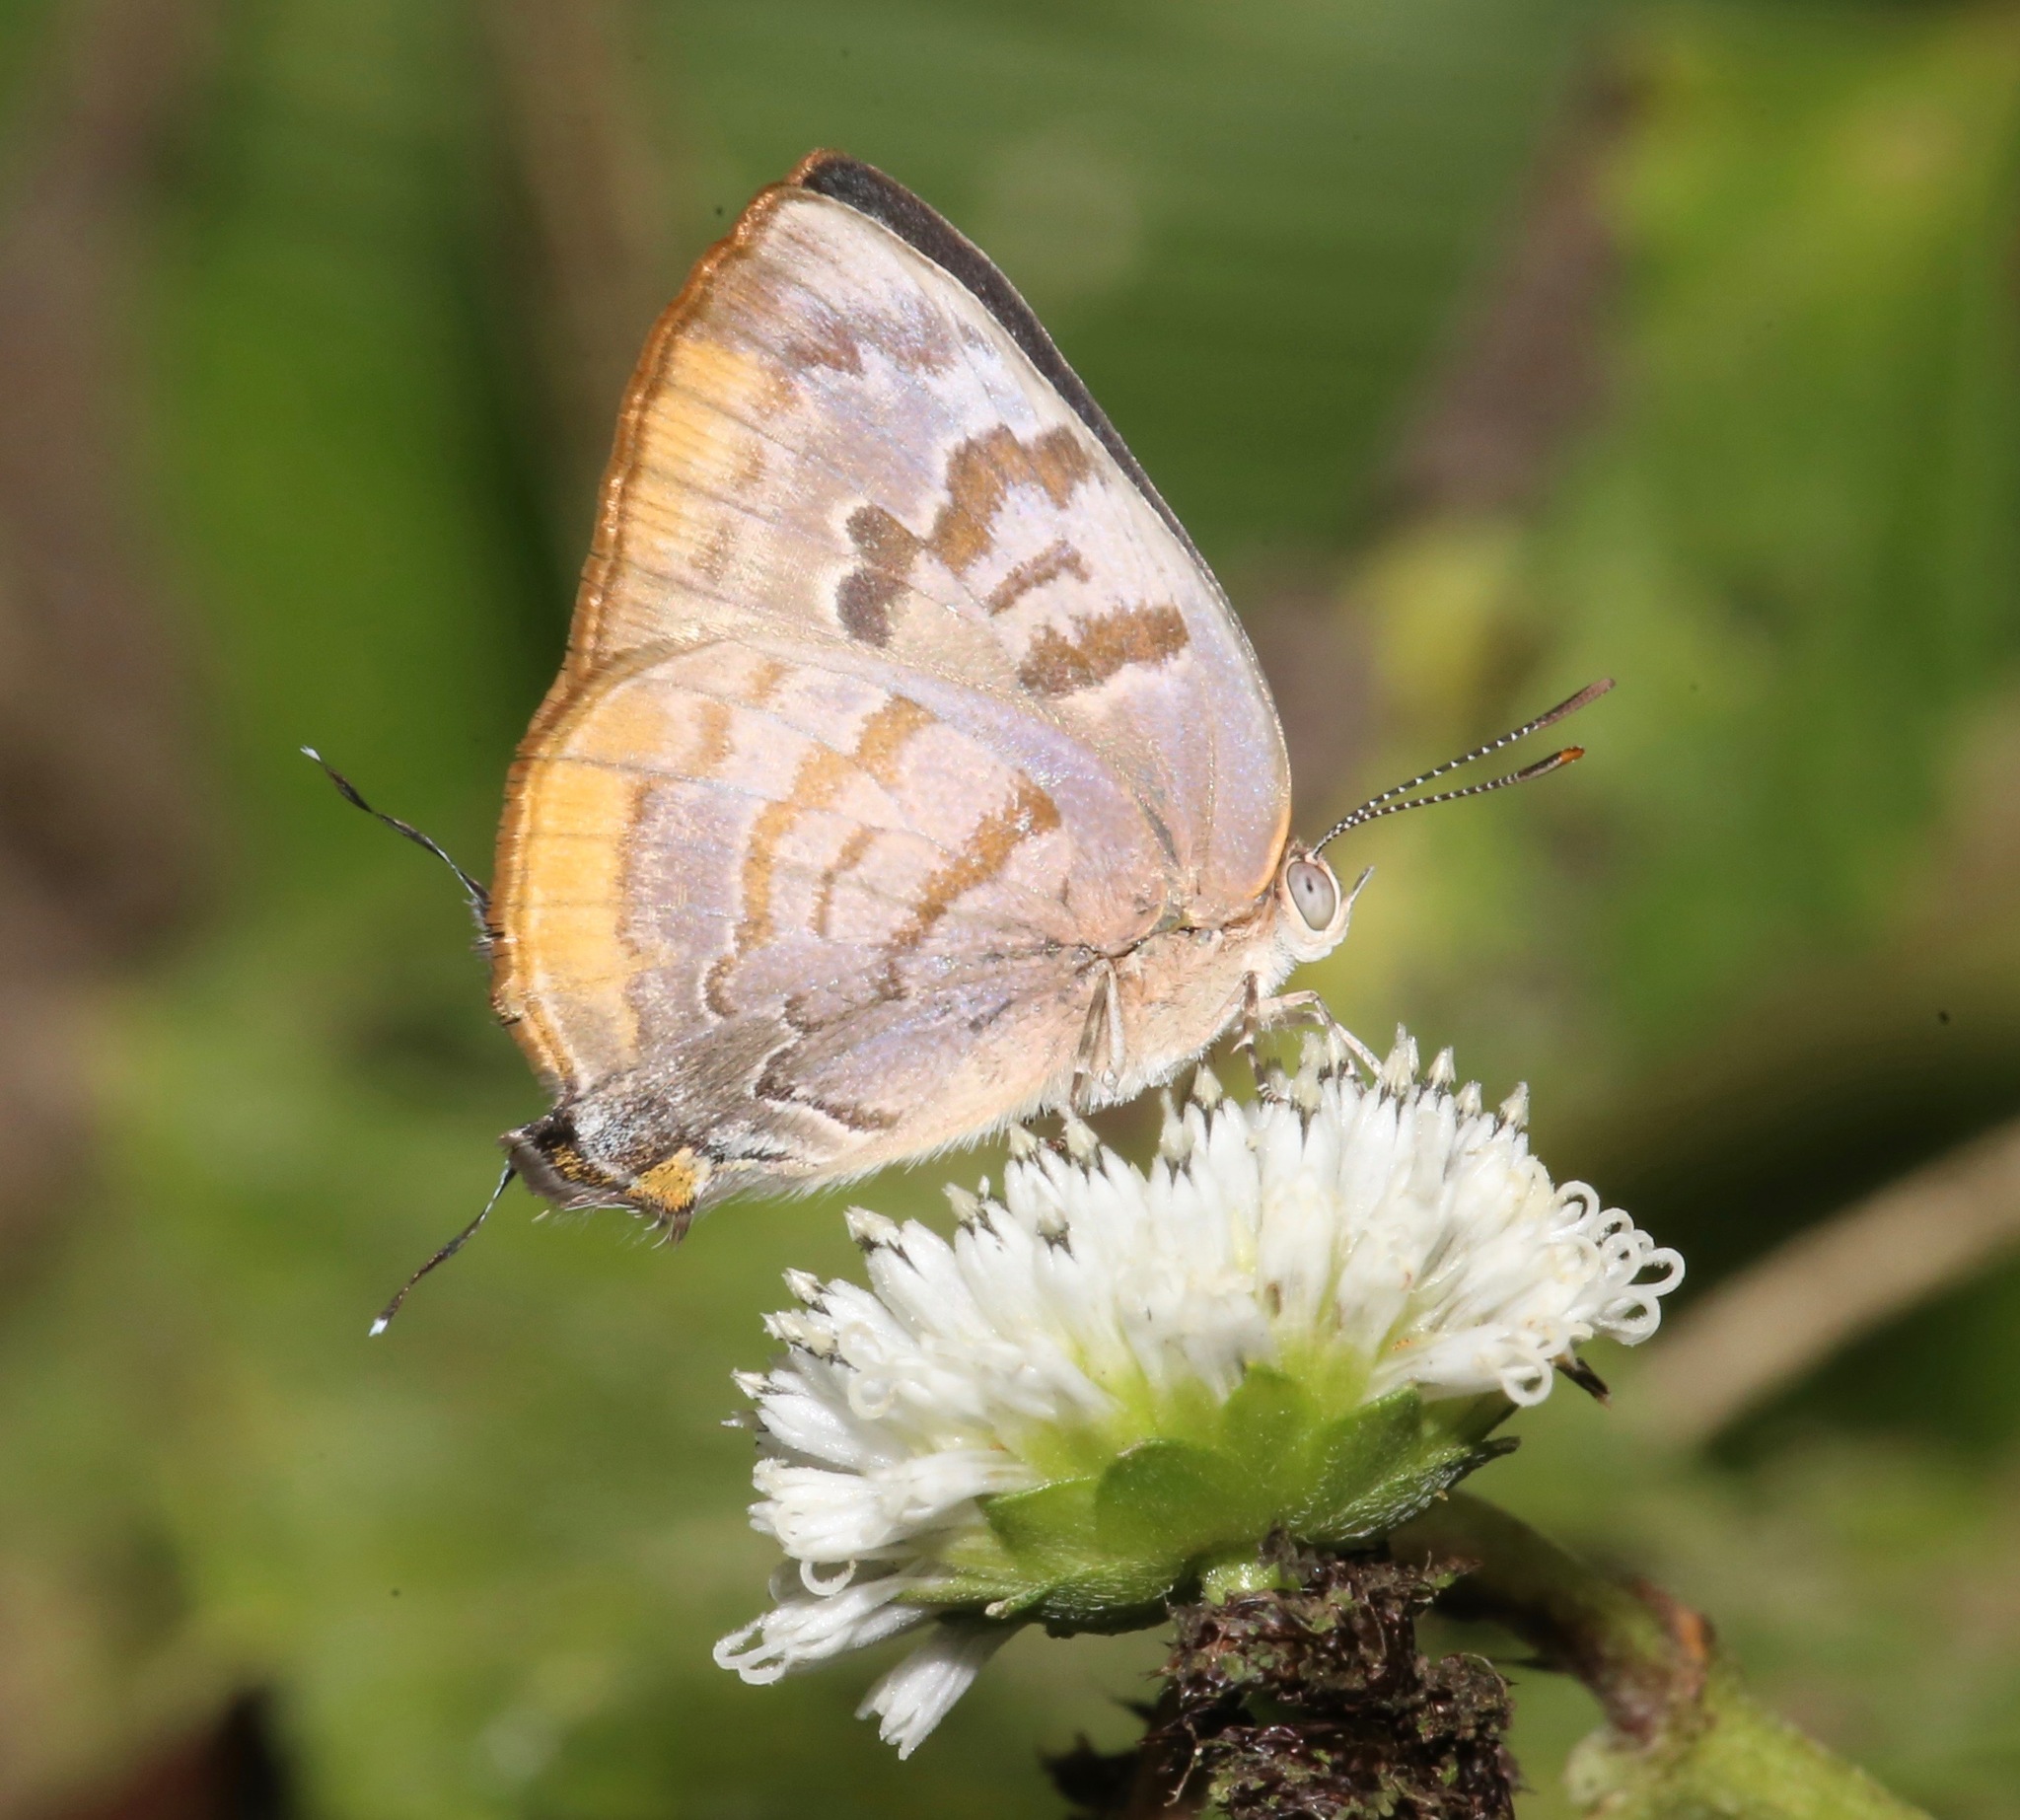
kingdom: Animalia
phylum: Arthropoda
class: Insecta
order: Lepidoptera
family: Lycaenidae
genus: Rekoa
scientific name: Rekoa palegon
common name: Gold-bordered hairstreak
